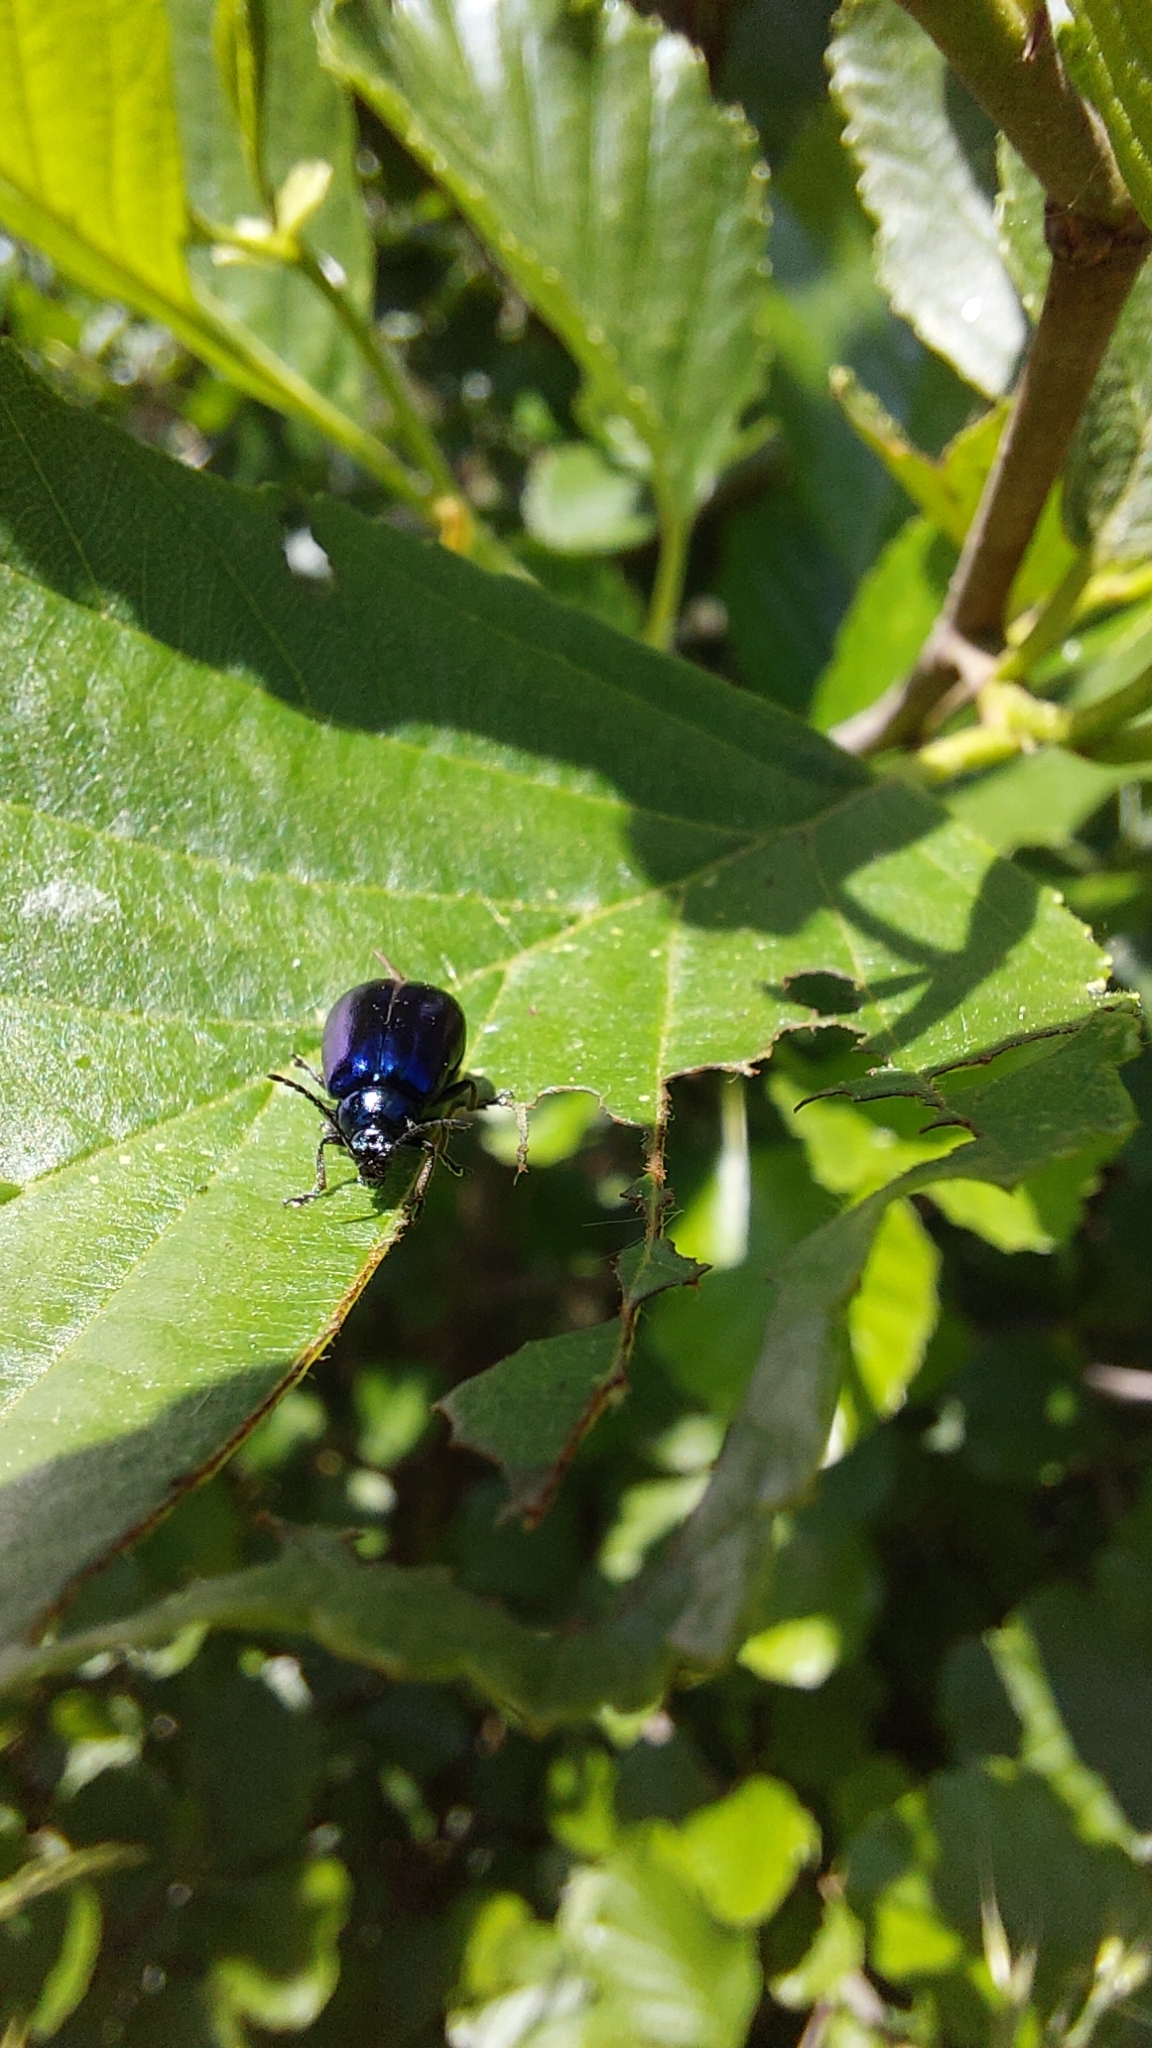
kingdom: Animalia
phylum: Arthropoda
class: Insecta
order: Coleoptera
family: Chrysomelidae
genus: Agelastica
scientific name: Agelastica alni
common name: Alder leaf beetle
